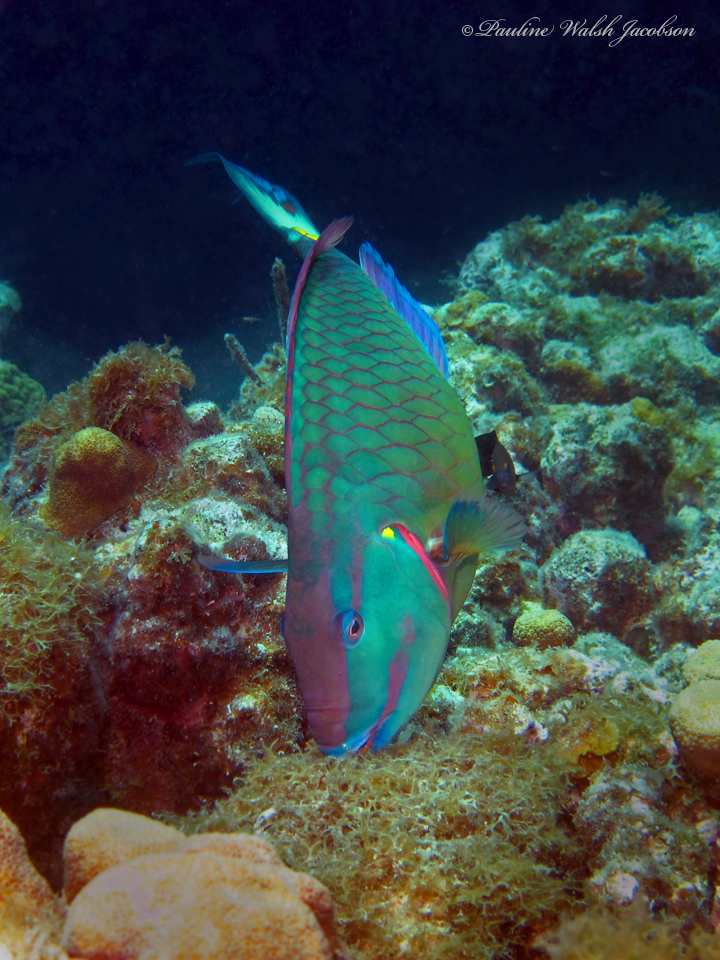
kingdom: Animalia
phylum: Chordata
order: Perciformes
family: Scaridae
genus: Sparisoma
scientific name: Sparisoma viride
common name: Stoplight parrotfish
